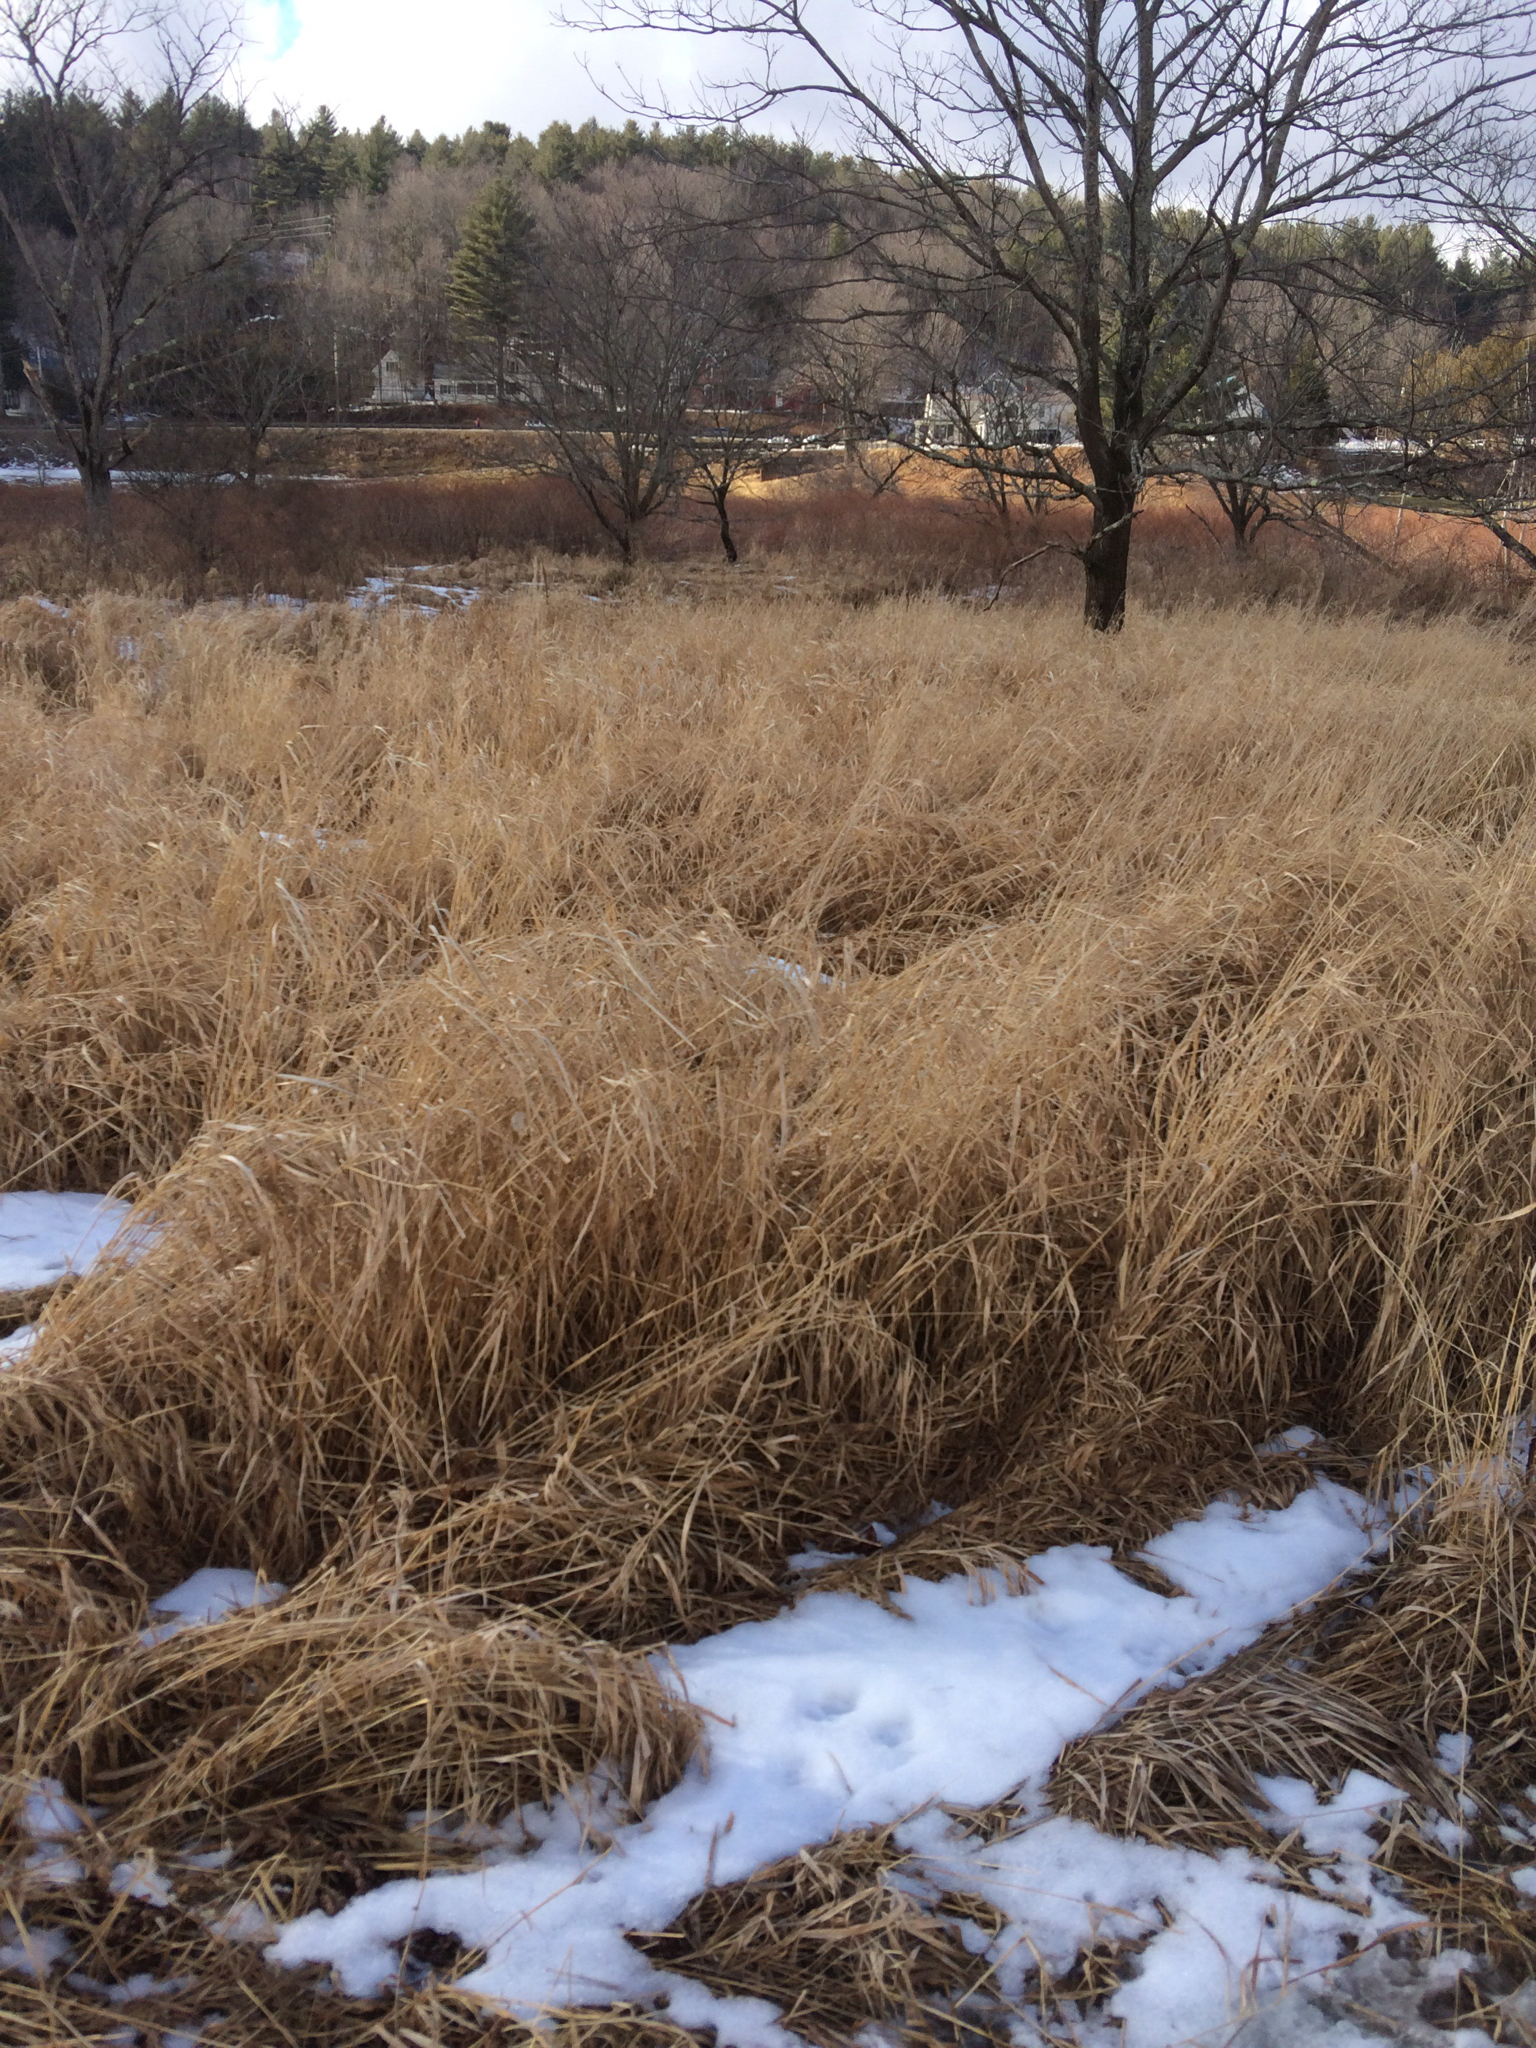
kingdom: Plantae
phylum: Tracheophyta
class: Liliopsida
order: Poales
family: Poaceae
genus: Phalaris
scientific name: Phalaris arundinacea
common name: Reed canary-grass
